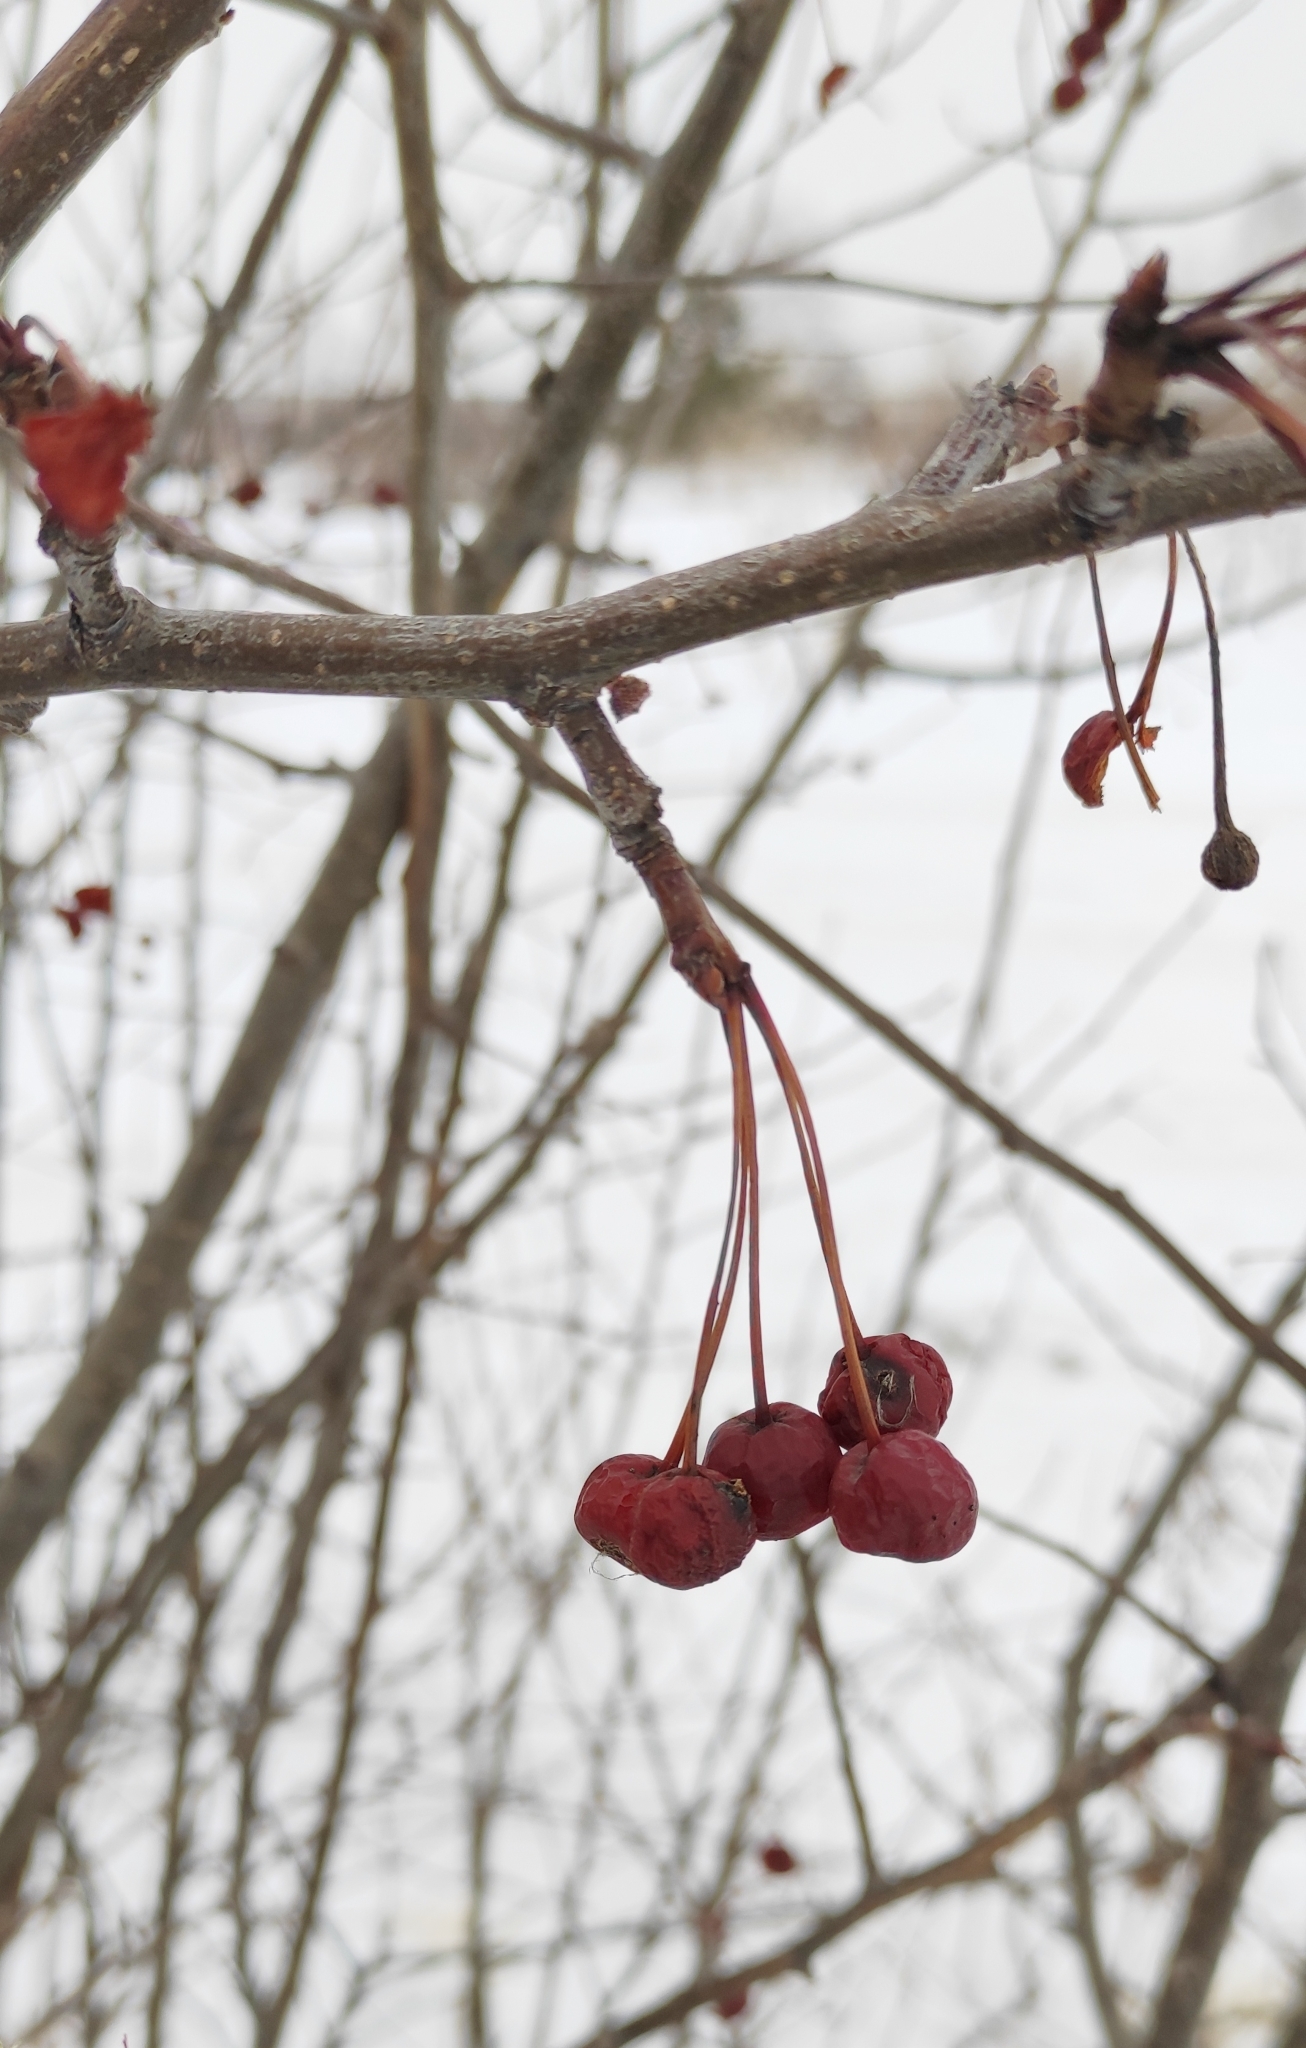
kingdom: Plantae
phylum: Tracheophyta
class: Magnoliopsida
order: Rosales
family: Rosaceae
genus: Malus
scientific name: Malus baccata
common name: Siberian crab
